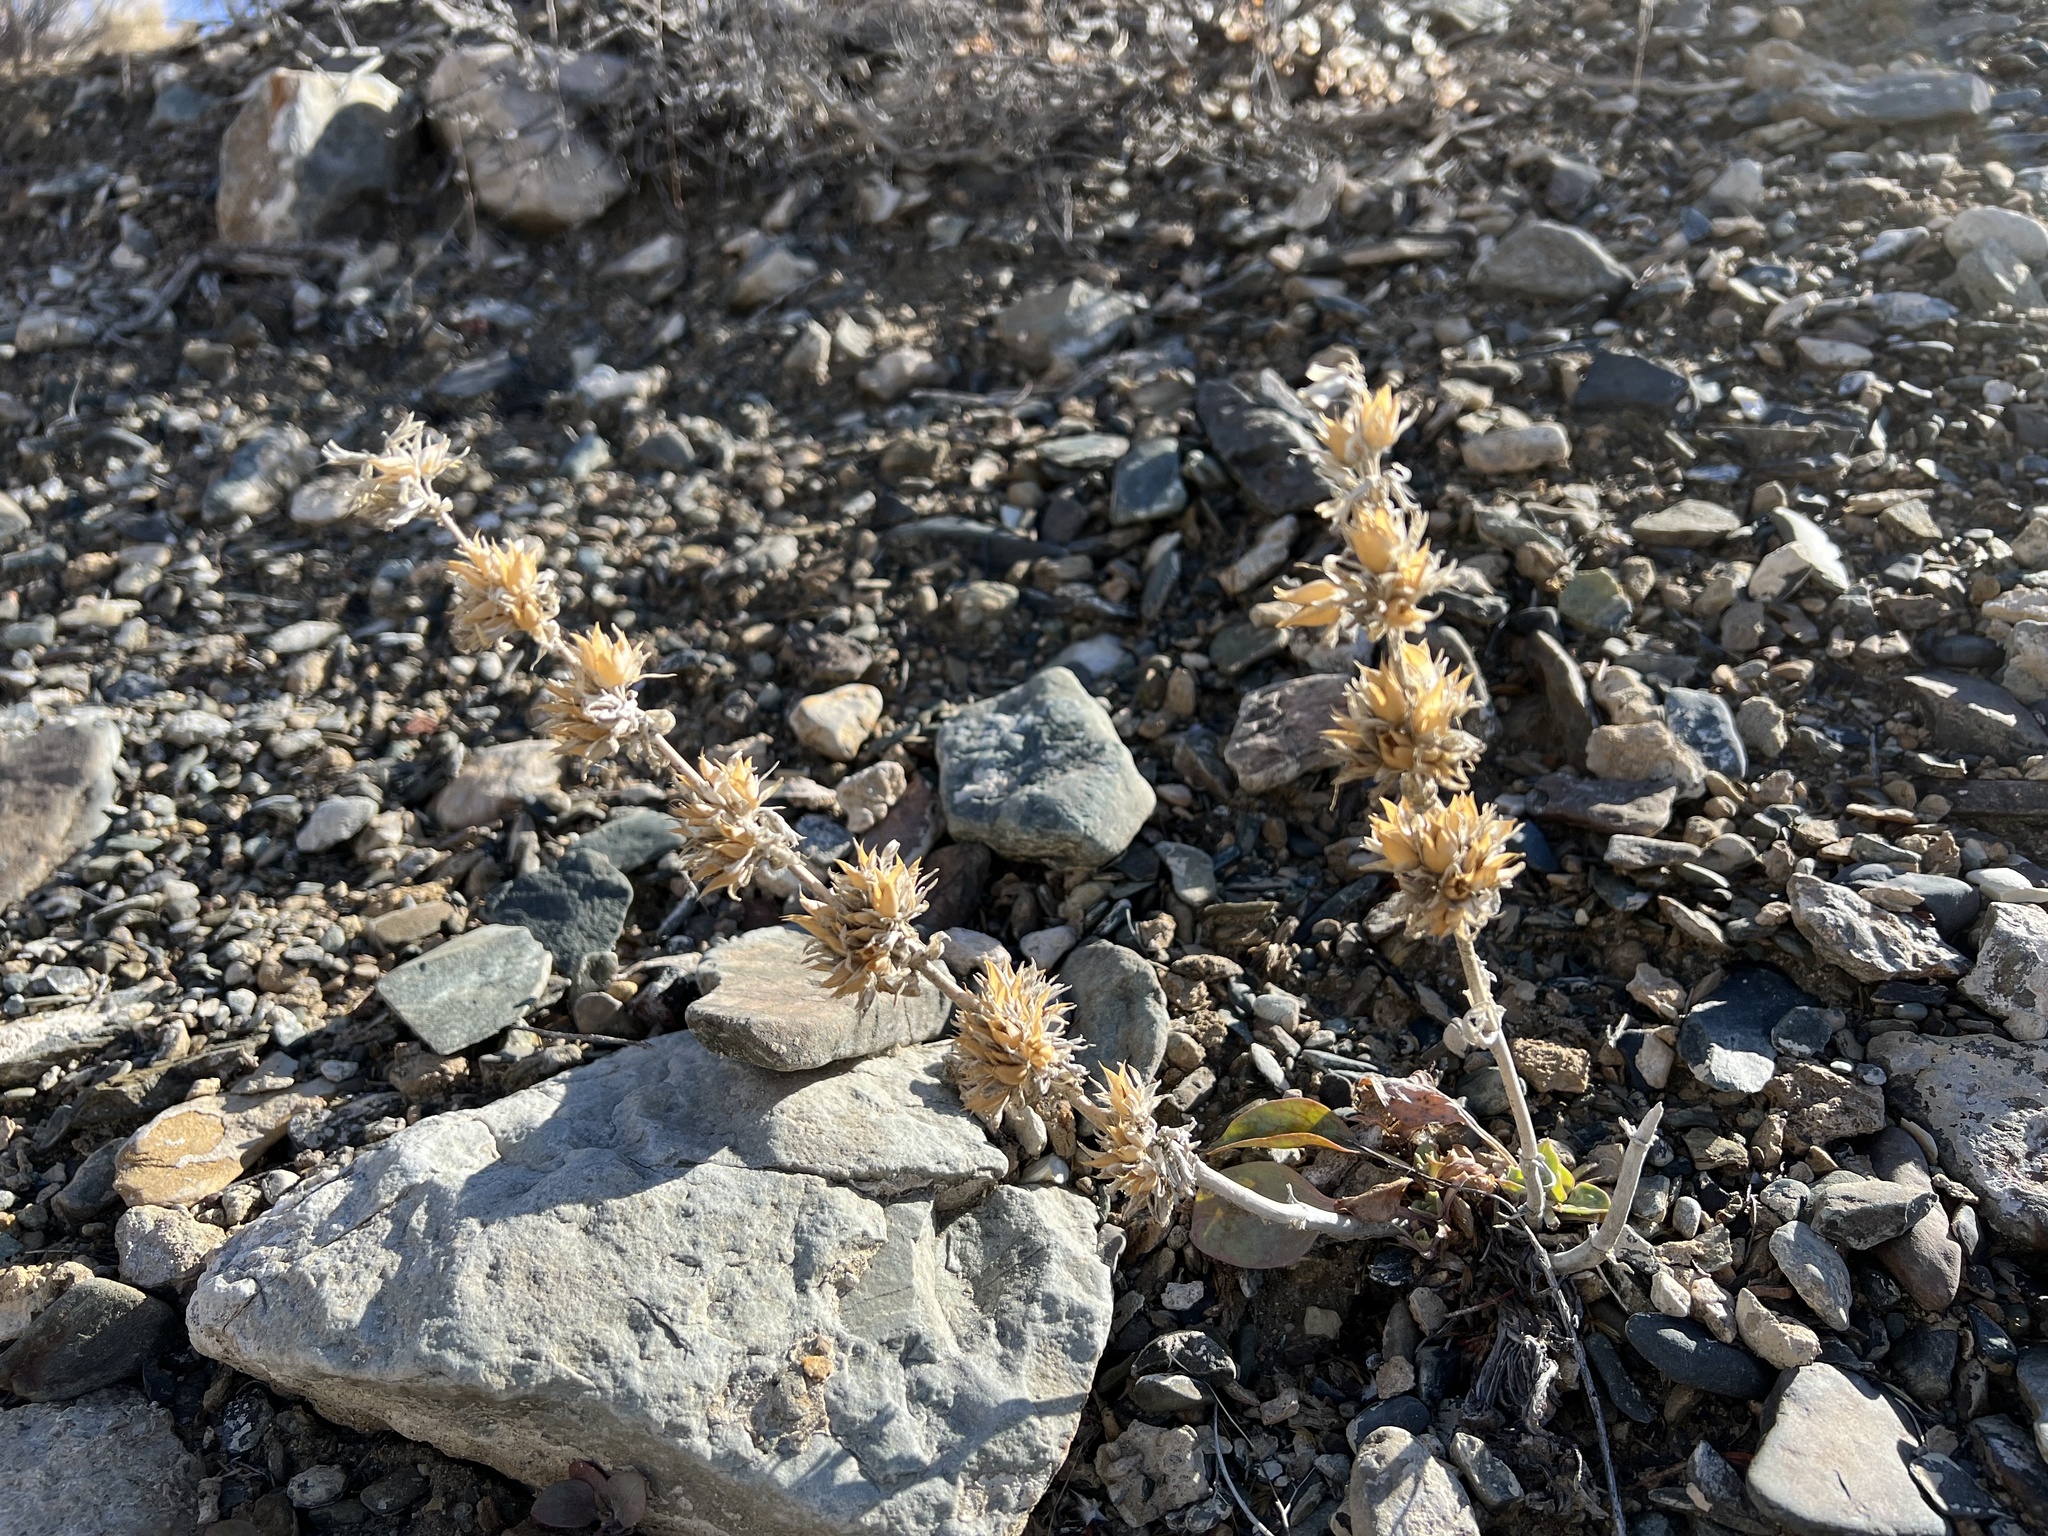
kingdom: Plantae
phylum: Tracheophyta
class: Magnoliopsida
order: Lamiales
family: Plantaginaceae
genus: Penstemon
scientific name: Penstemon monoensis
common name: Mono penstemon
